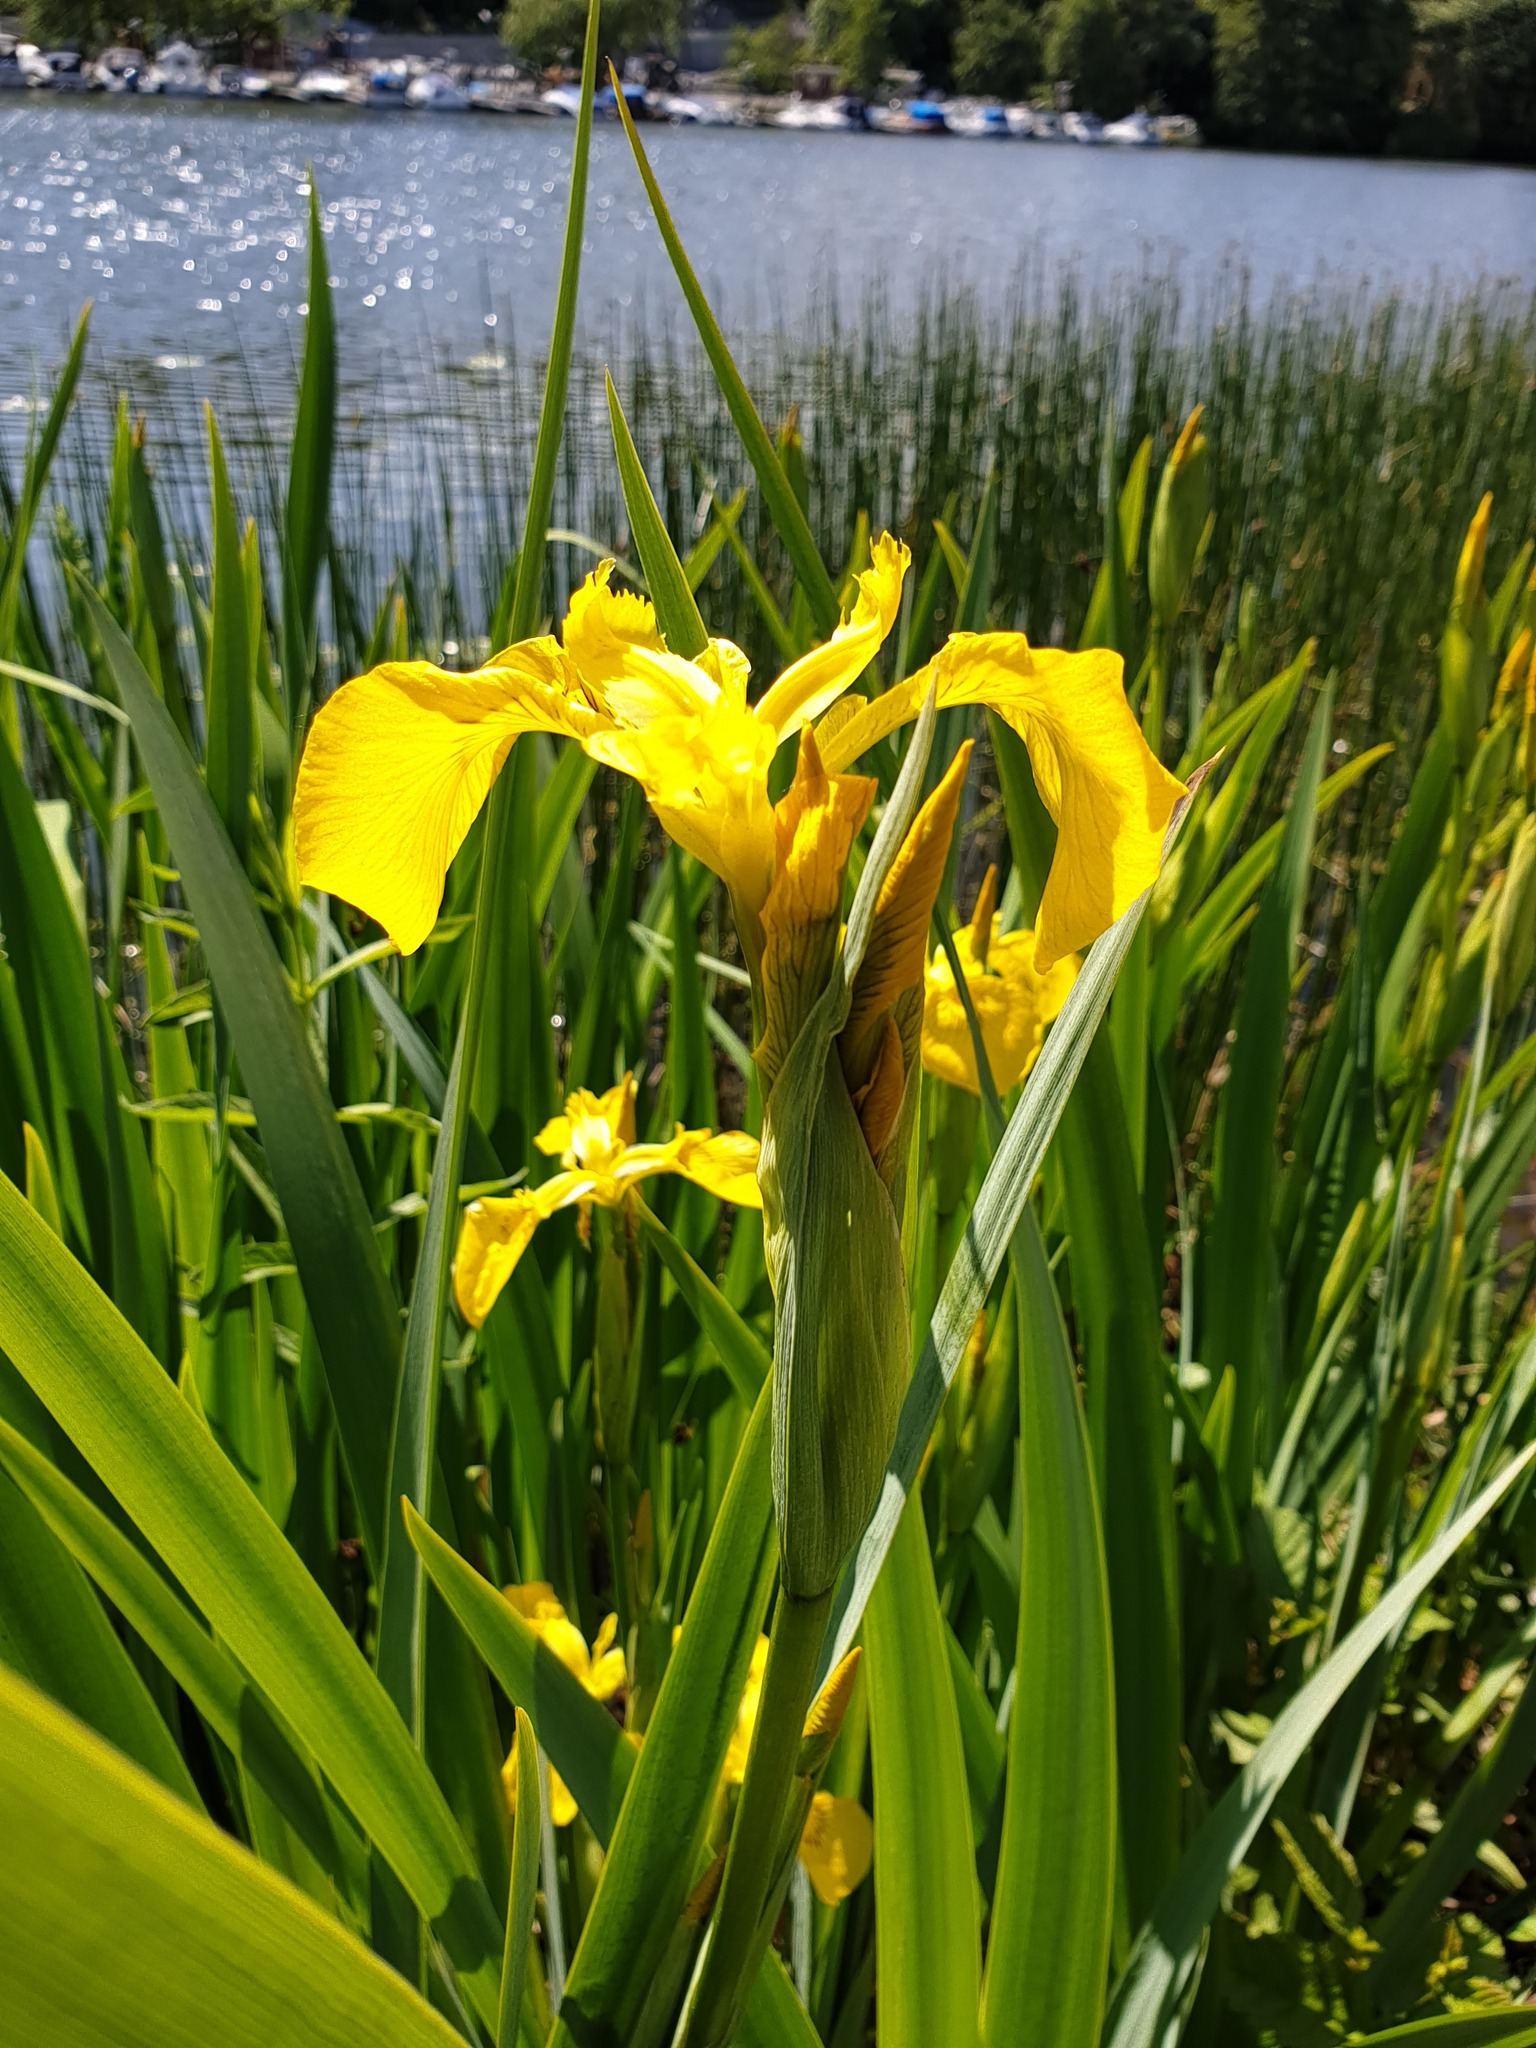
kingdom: Plantae
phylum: Tracheophyta
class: Liliopsida
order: Asparagales
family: Iridaceae
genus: Iris
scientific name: Iris pseudacorus
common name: Yellow flag
